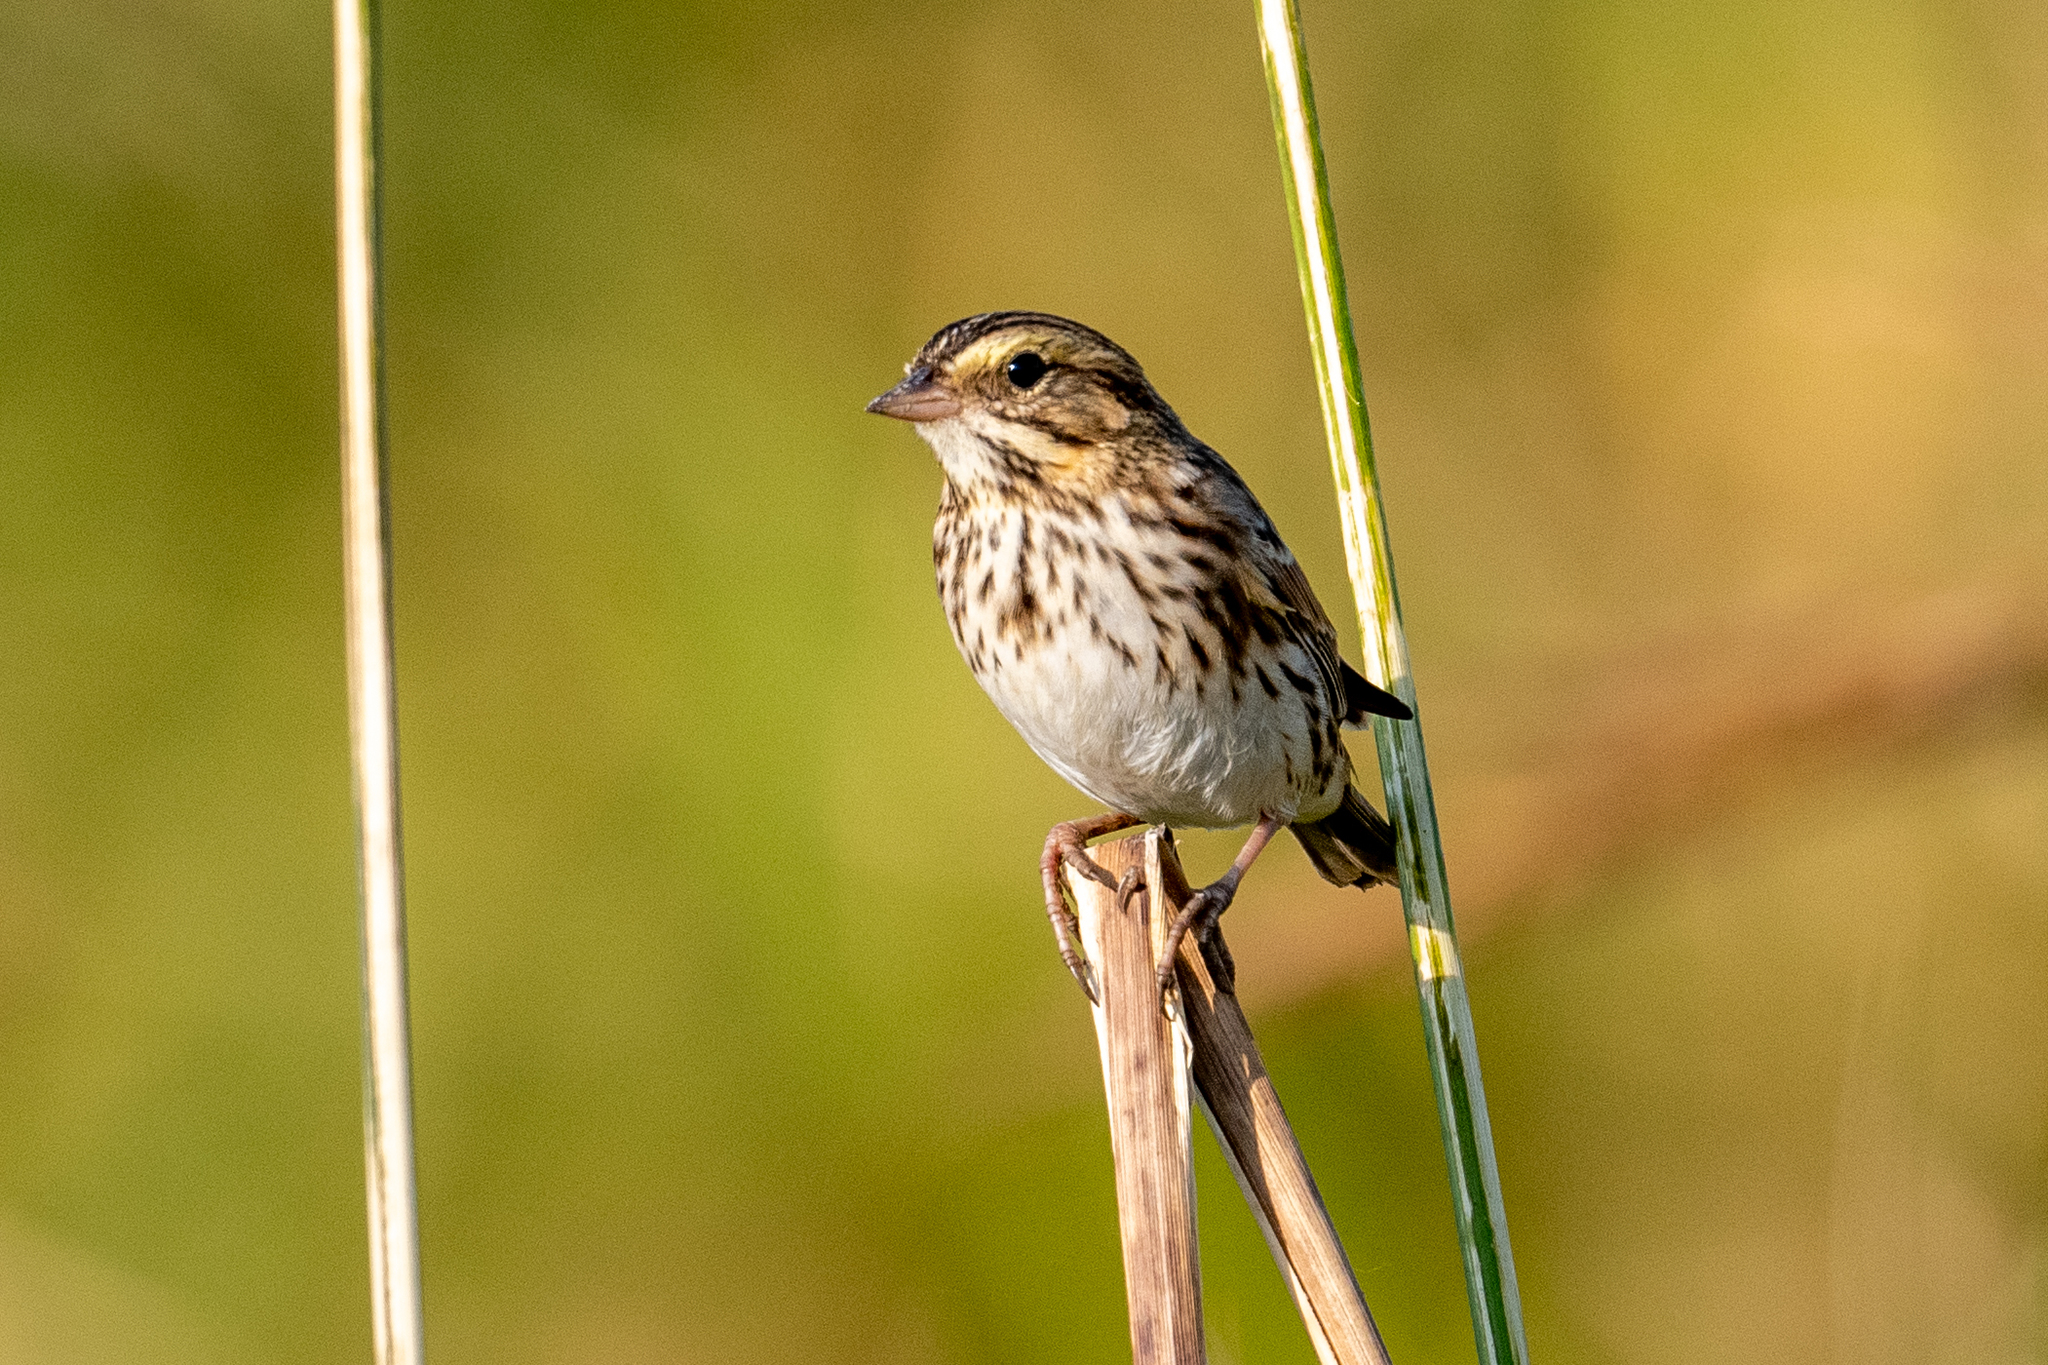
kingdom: Animalia
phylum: Chordata
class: Aves
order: Passeriformes
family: Passerellidae
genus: Passerculus
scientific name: Passerculus sandwichensis
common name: Savannah sparrow
